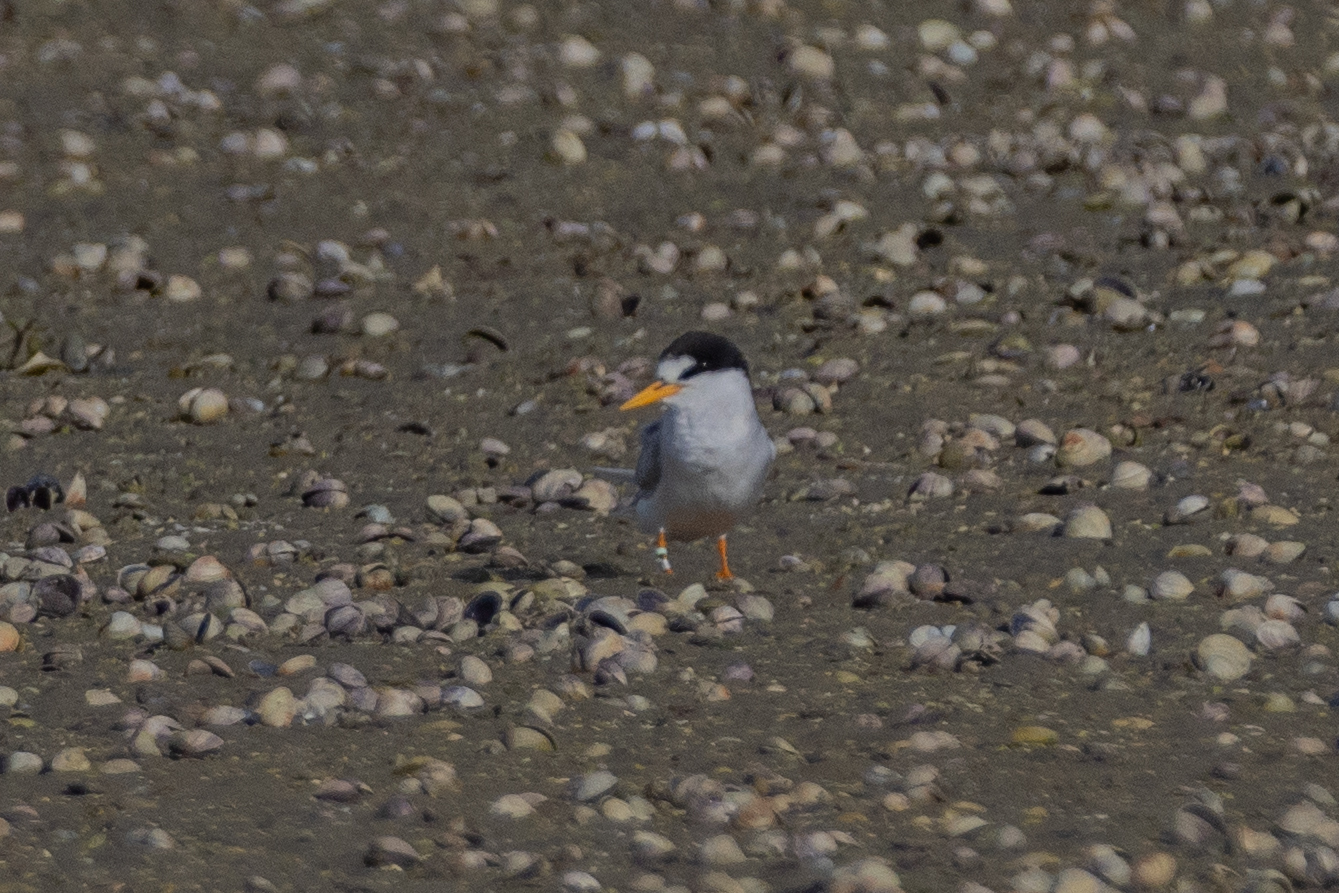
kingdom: Animalia
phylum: Chordata
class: Aves
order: Charadriiformes
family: Laridae
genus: Sternula
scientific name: Sternula nereis
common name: Fairy tern
